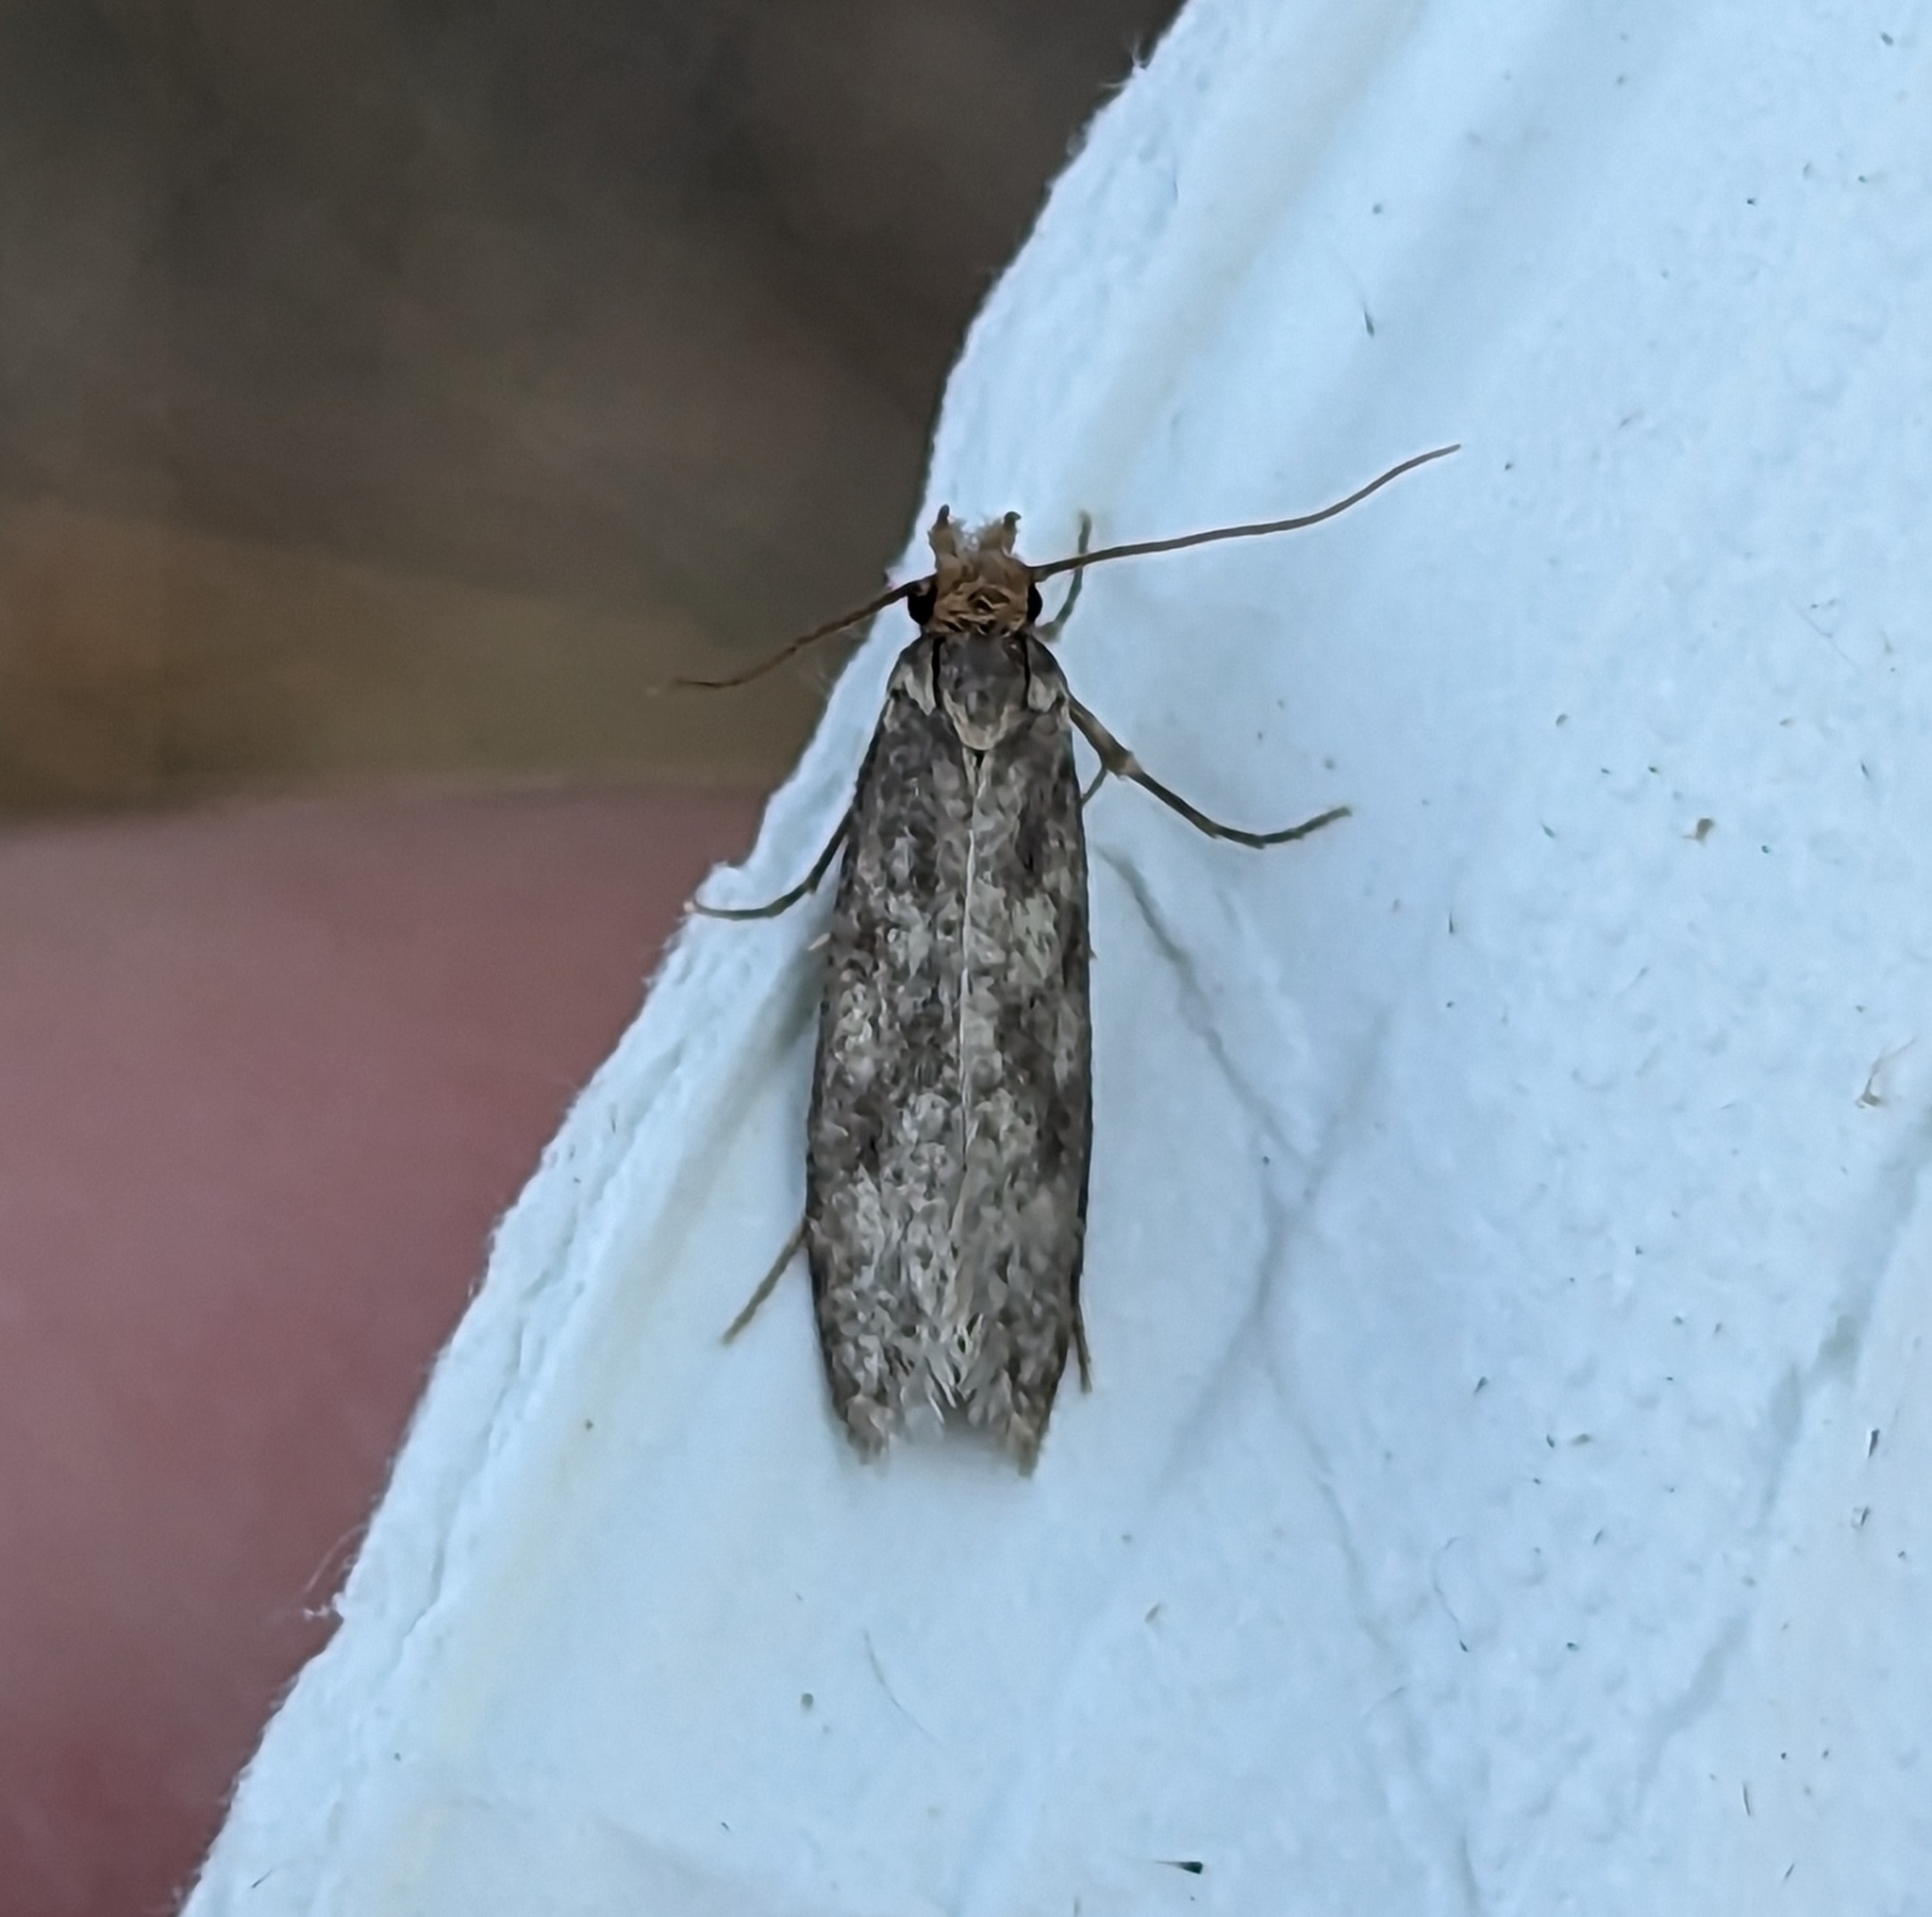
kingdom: Animalia
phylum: Arthropoda
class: Insecta
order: Lepidoptera
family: Tineidae
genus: Tinea
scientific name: Tinea pellionella
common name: Case-making clothes moth
